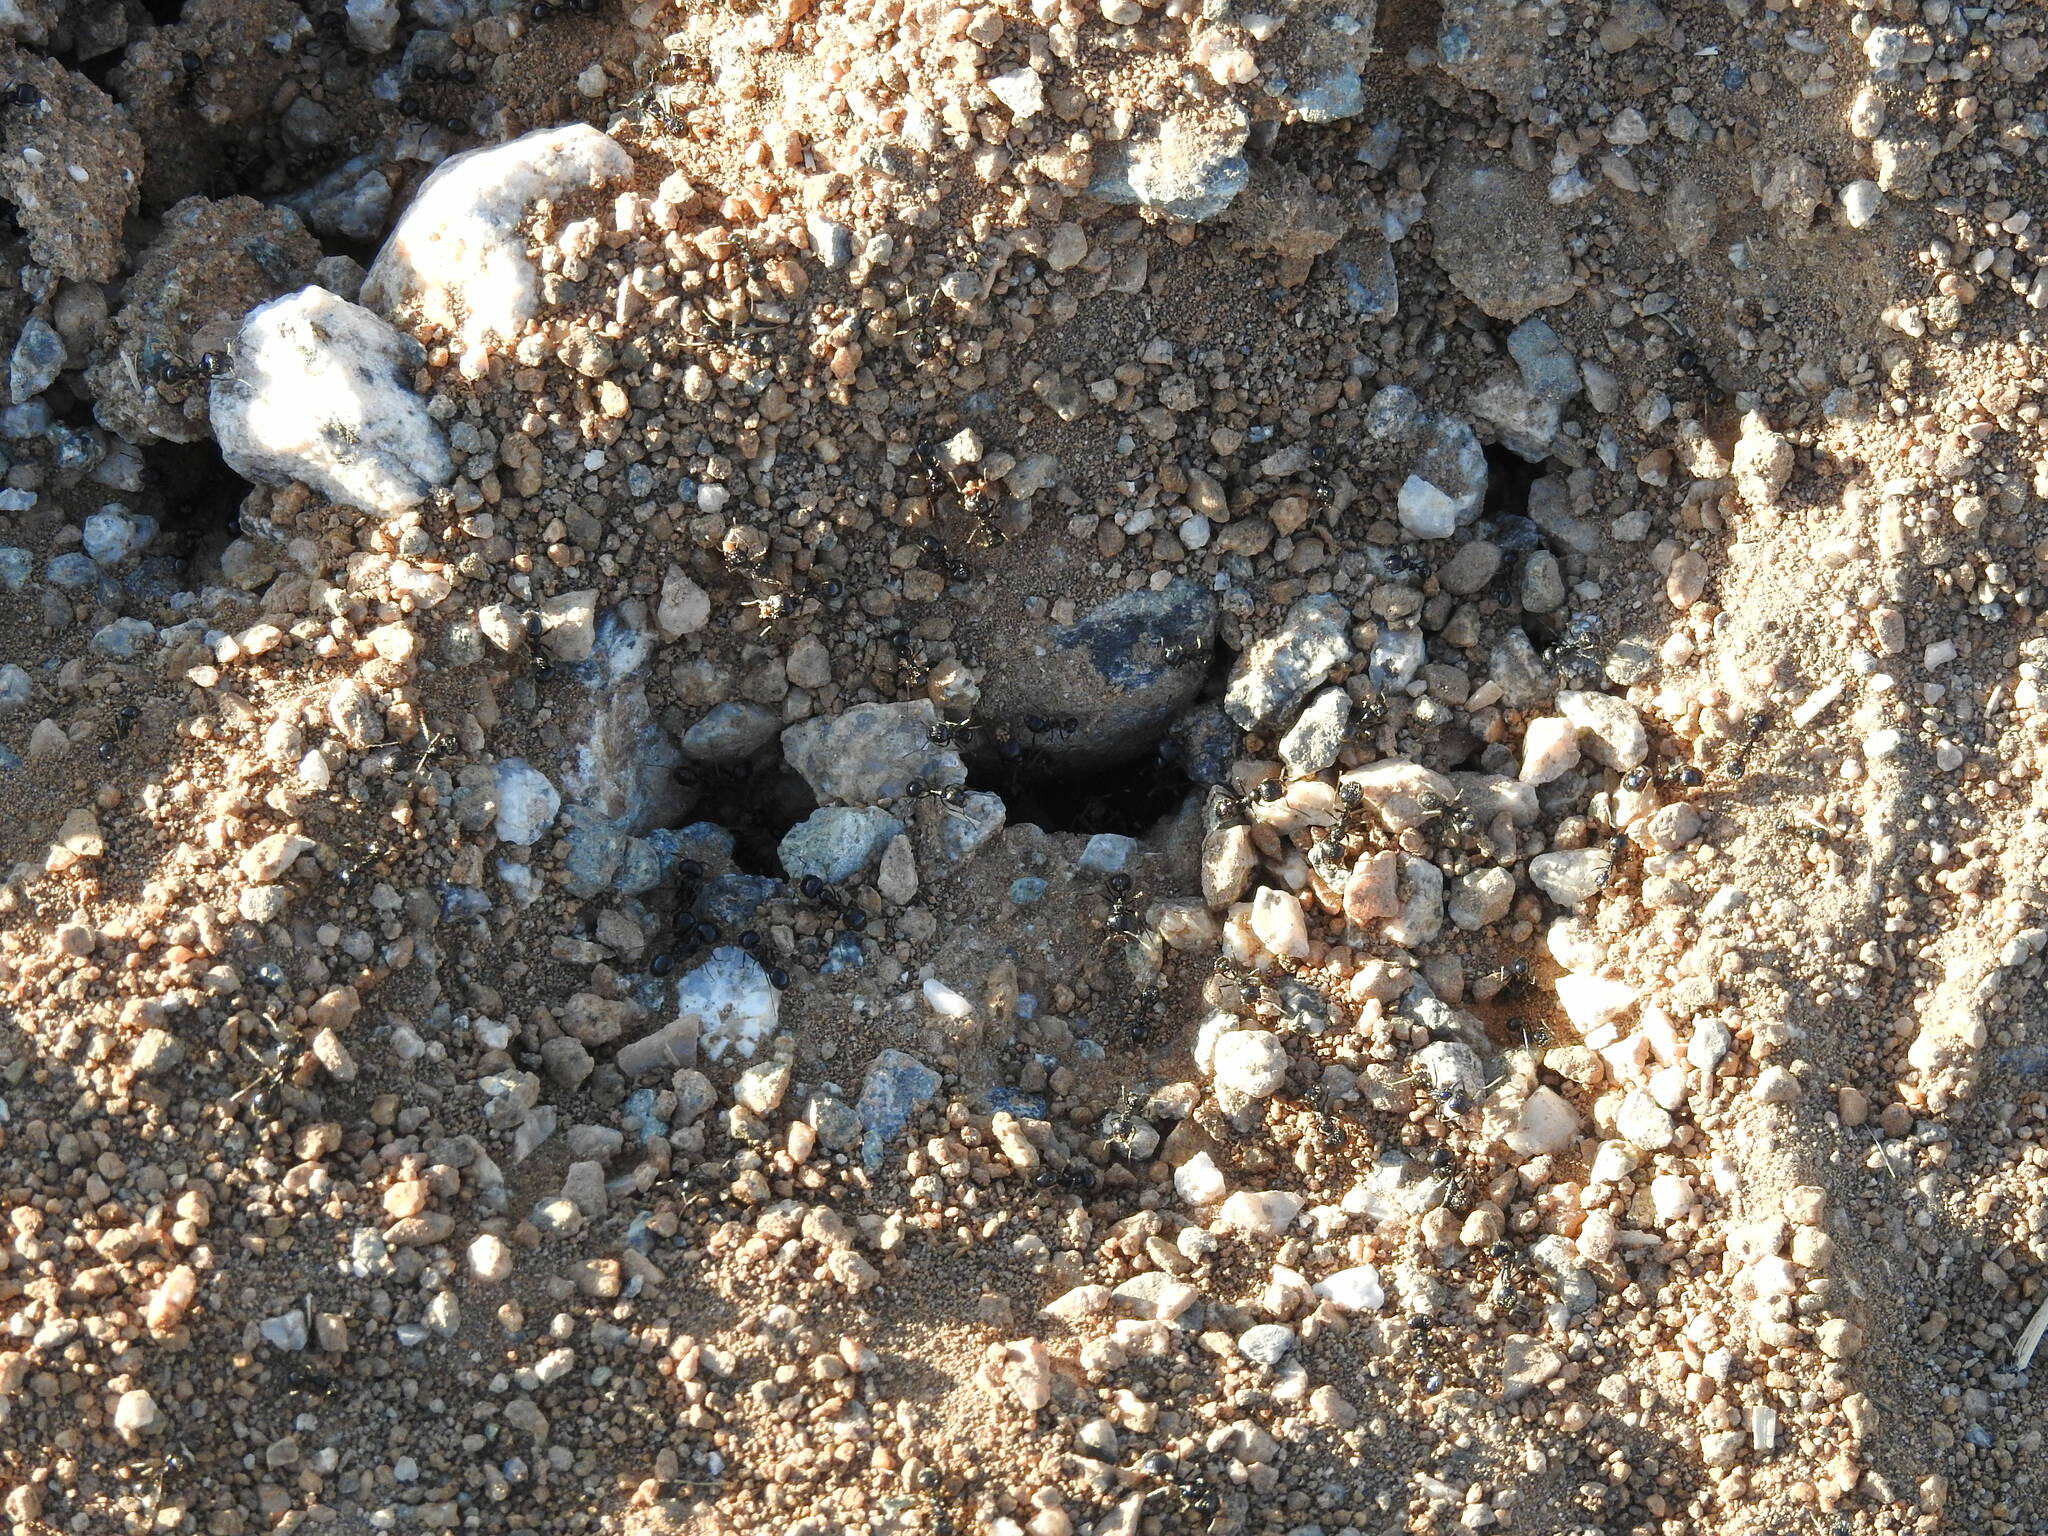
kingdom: Animalia
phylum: Arthropoda
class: Insecta
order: Hymenoptera
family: Formicidae
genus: Messor
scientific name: Messor pergandei
